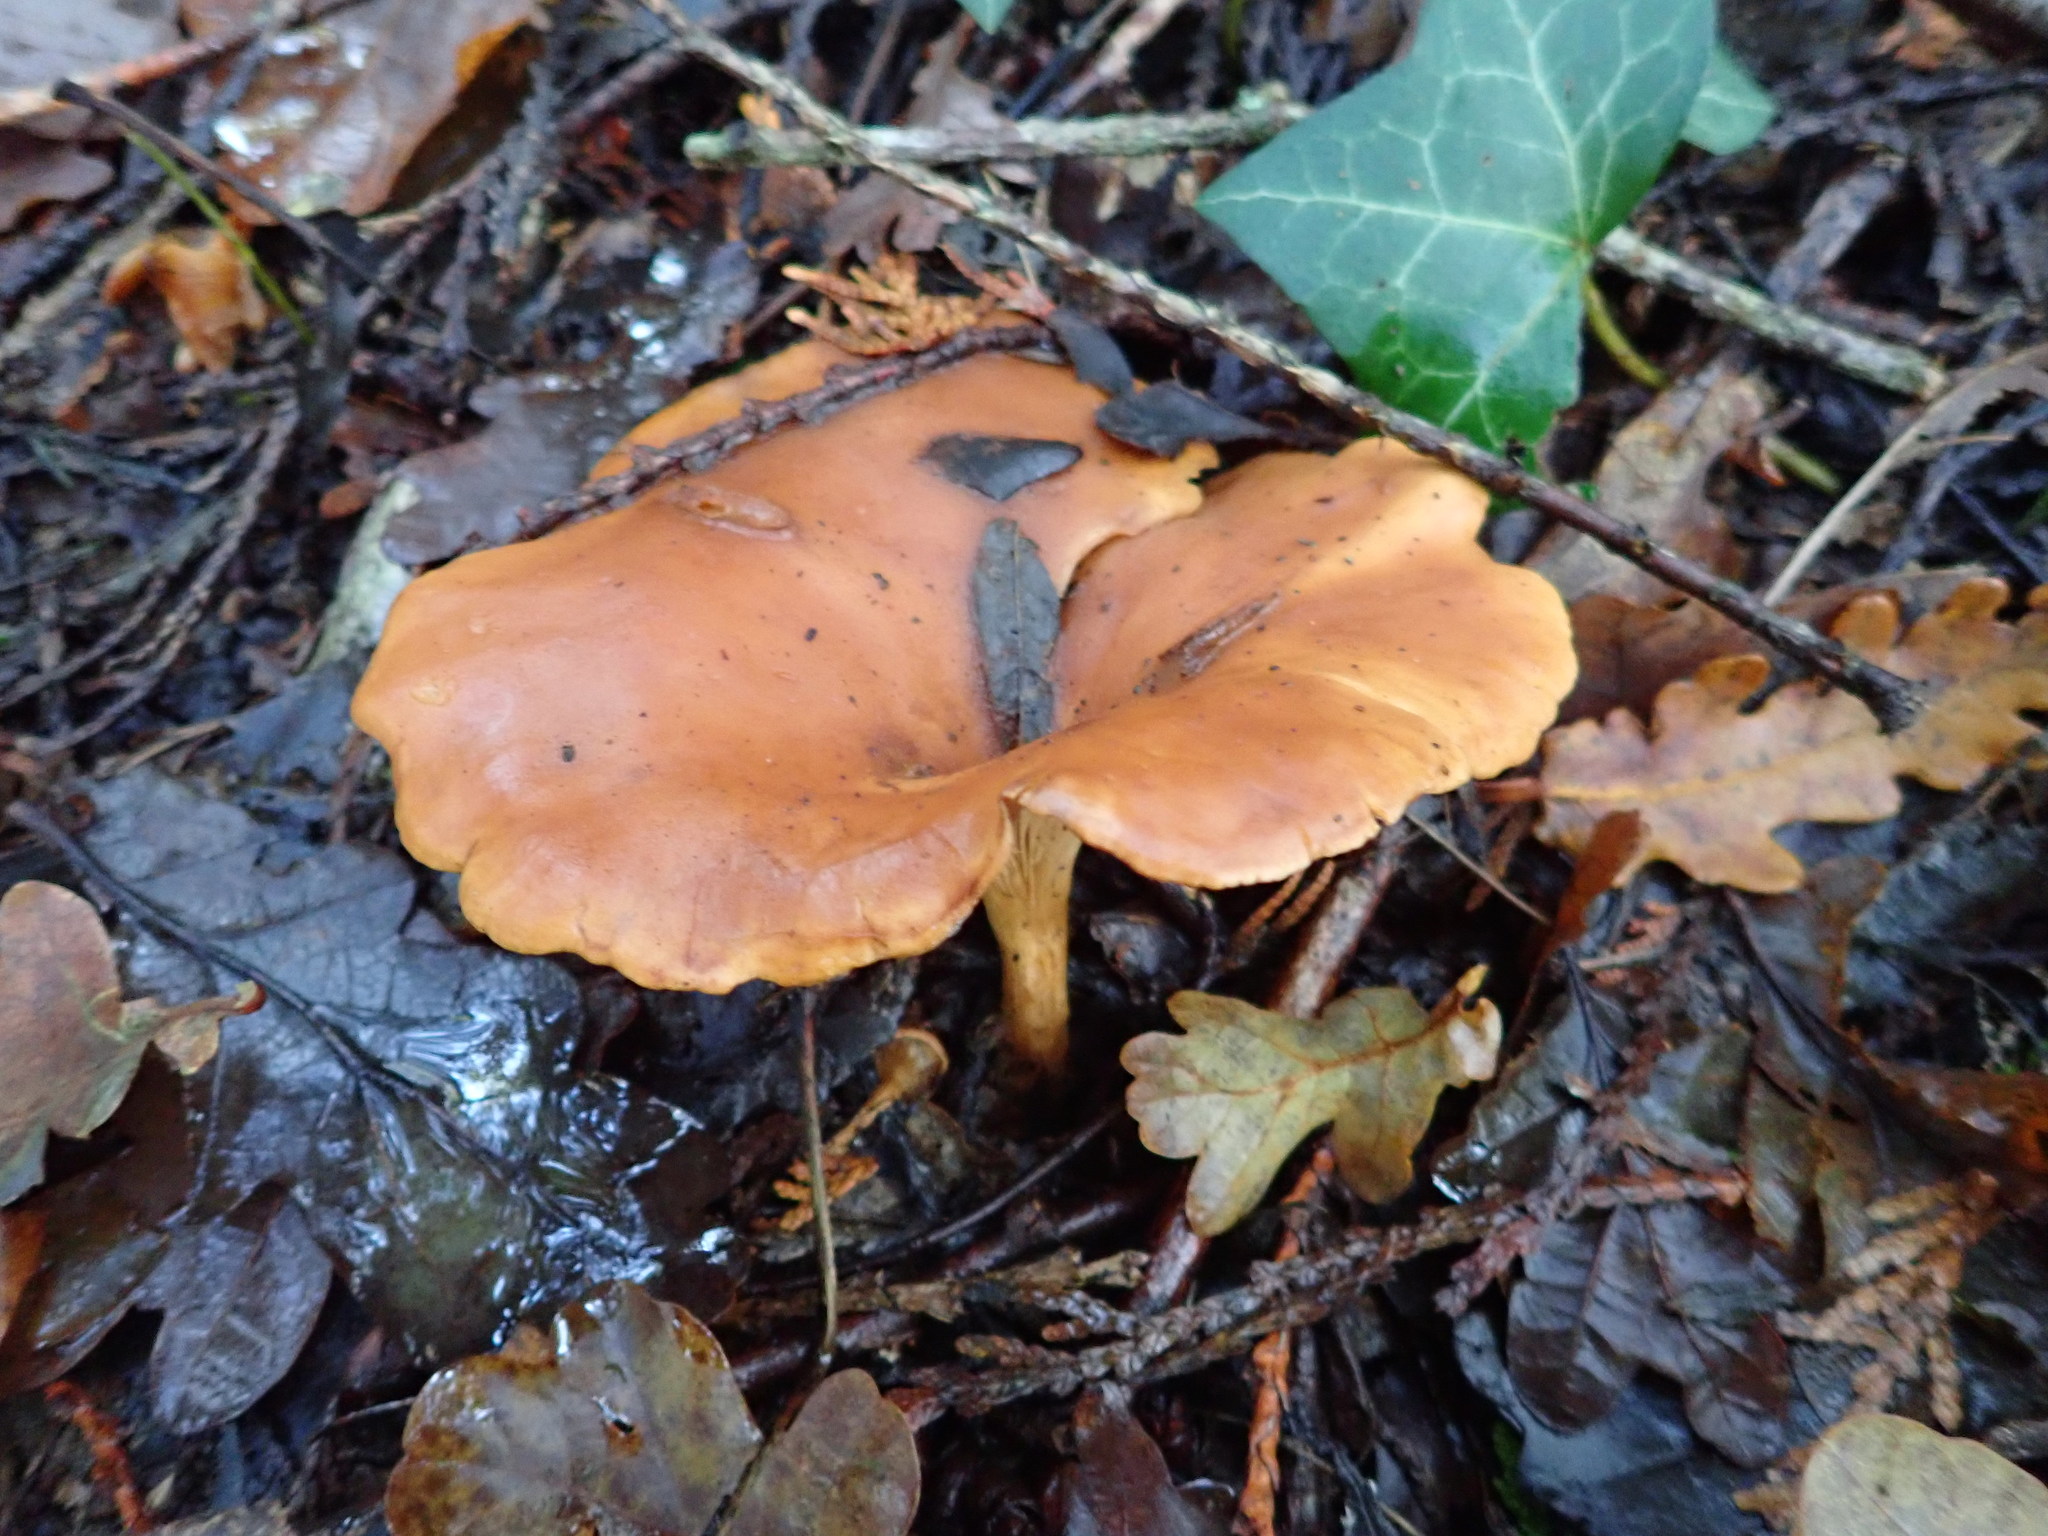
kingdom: Fungi
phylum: Basidiomycota
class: Agaricomycetes
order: Agaricales
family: Tricholomataceae
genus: Paralepista
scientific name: Paralepista flaccida
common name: Tawny funnel cap
